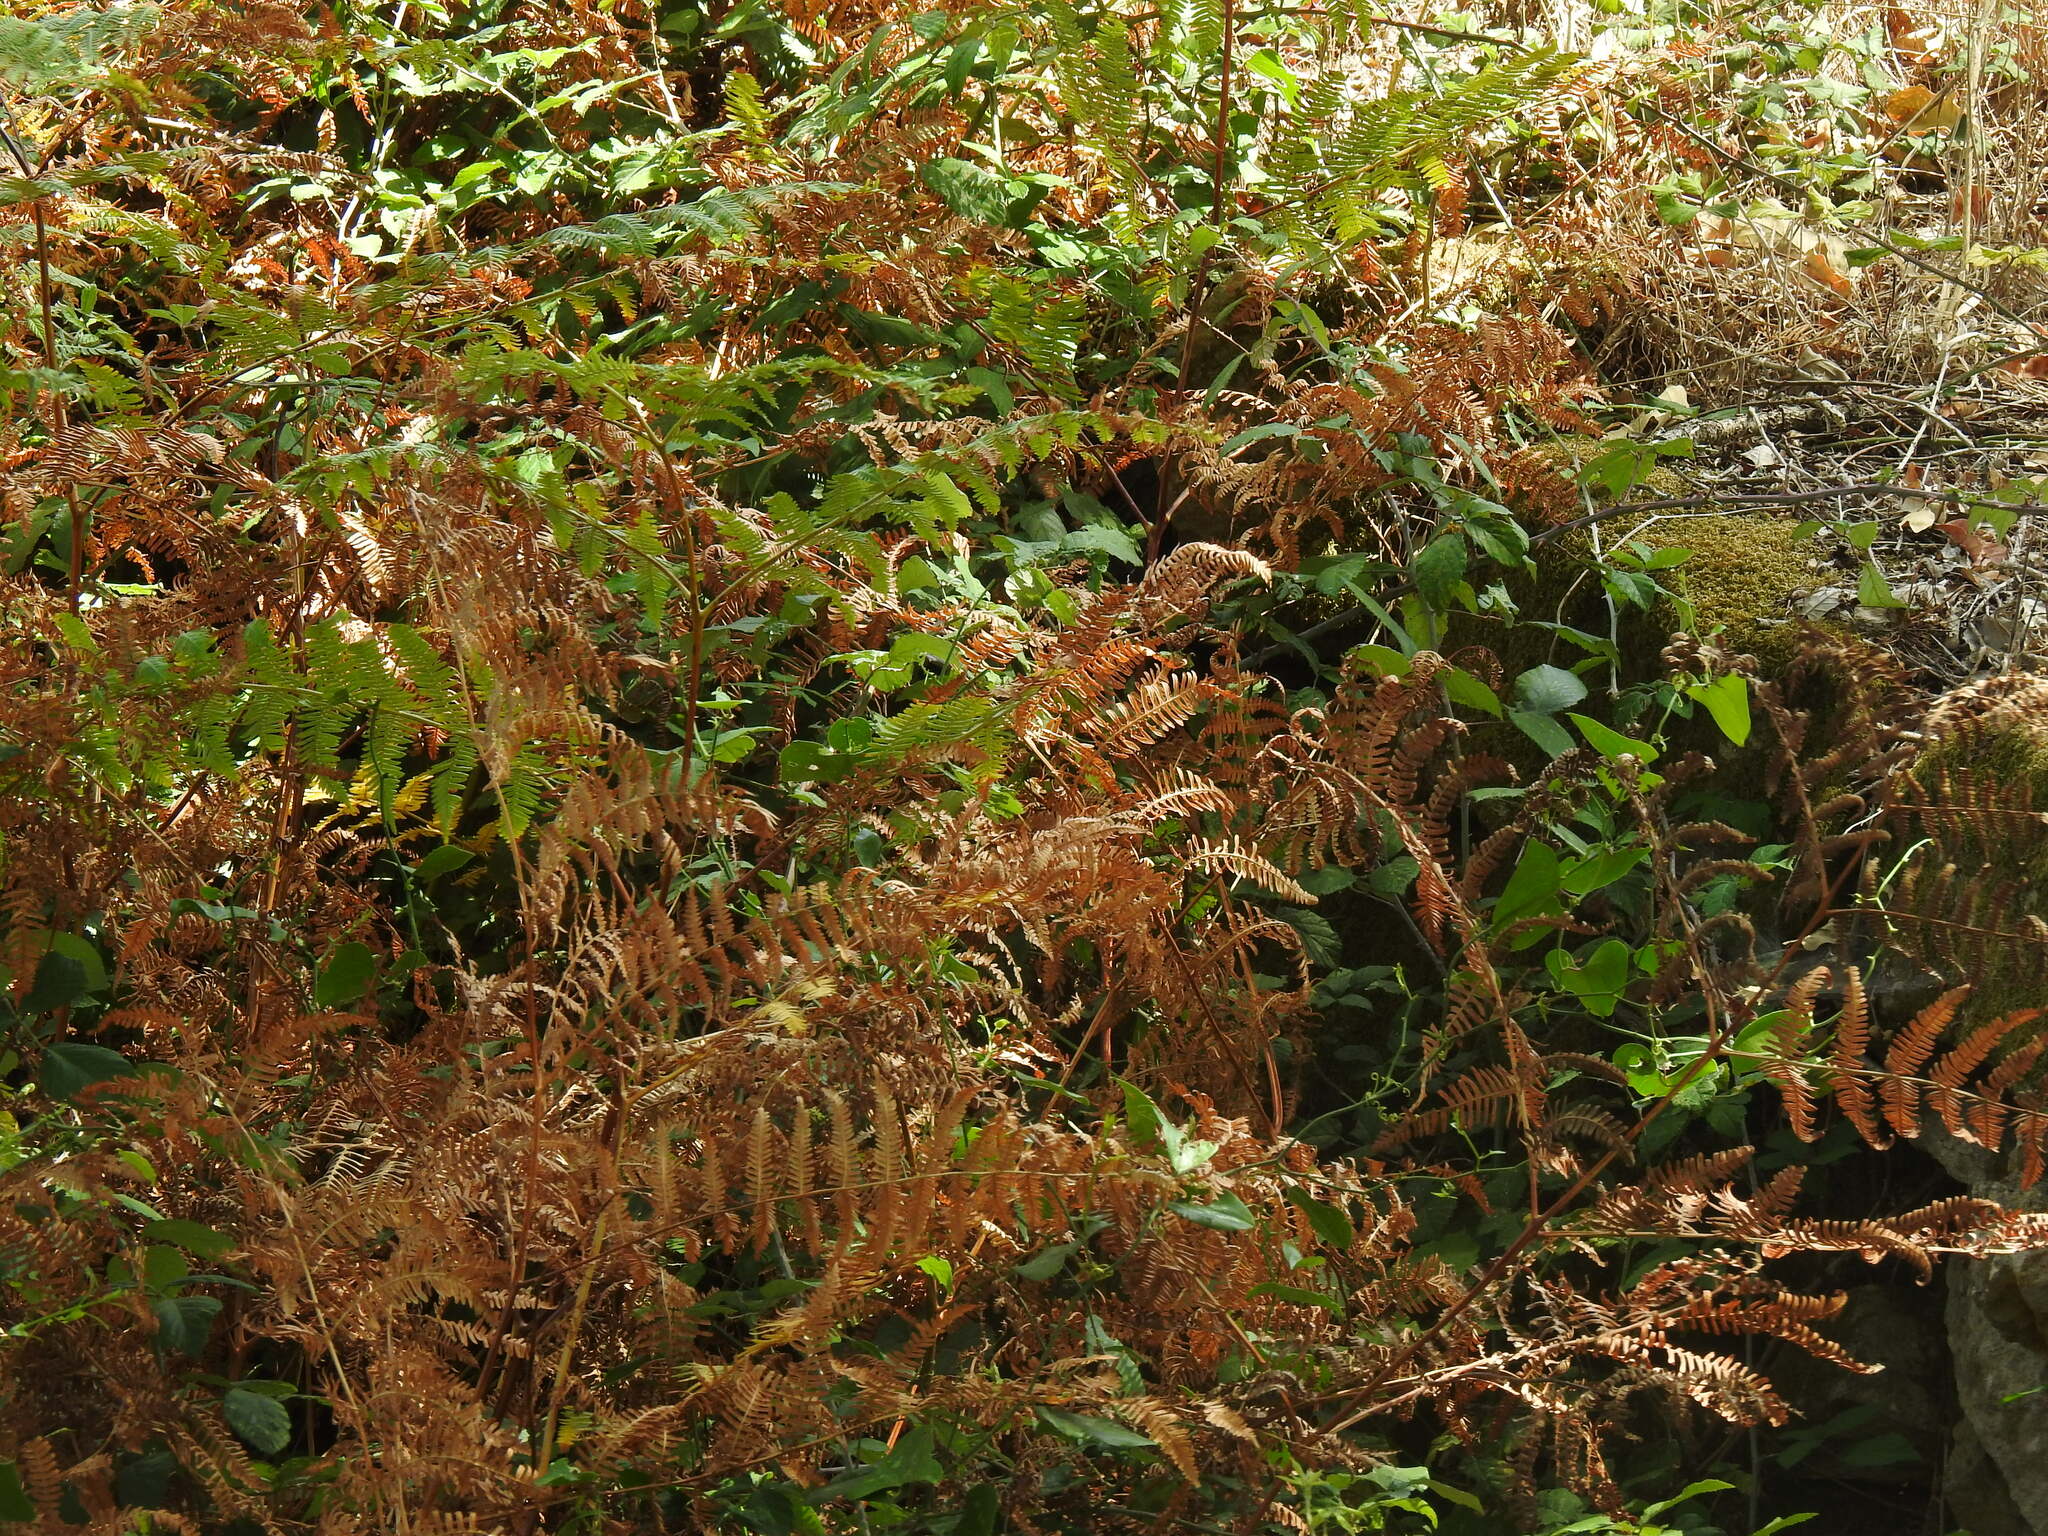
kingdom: Plantae
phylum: Tracheophyta
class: Polypodiopsida
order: Polypodiales
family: Dennstaedtiaceae
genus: Pteridium
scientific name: Pteridium aquilinum
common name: Bracken
